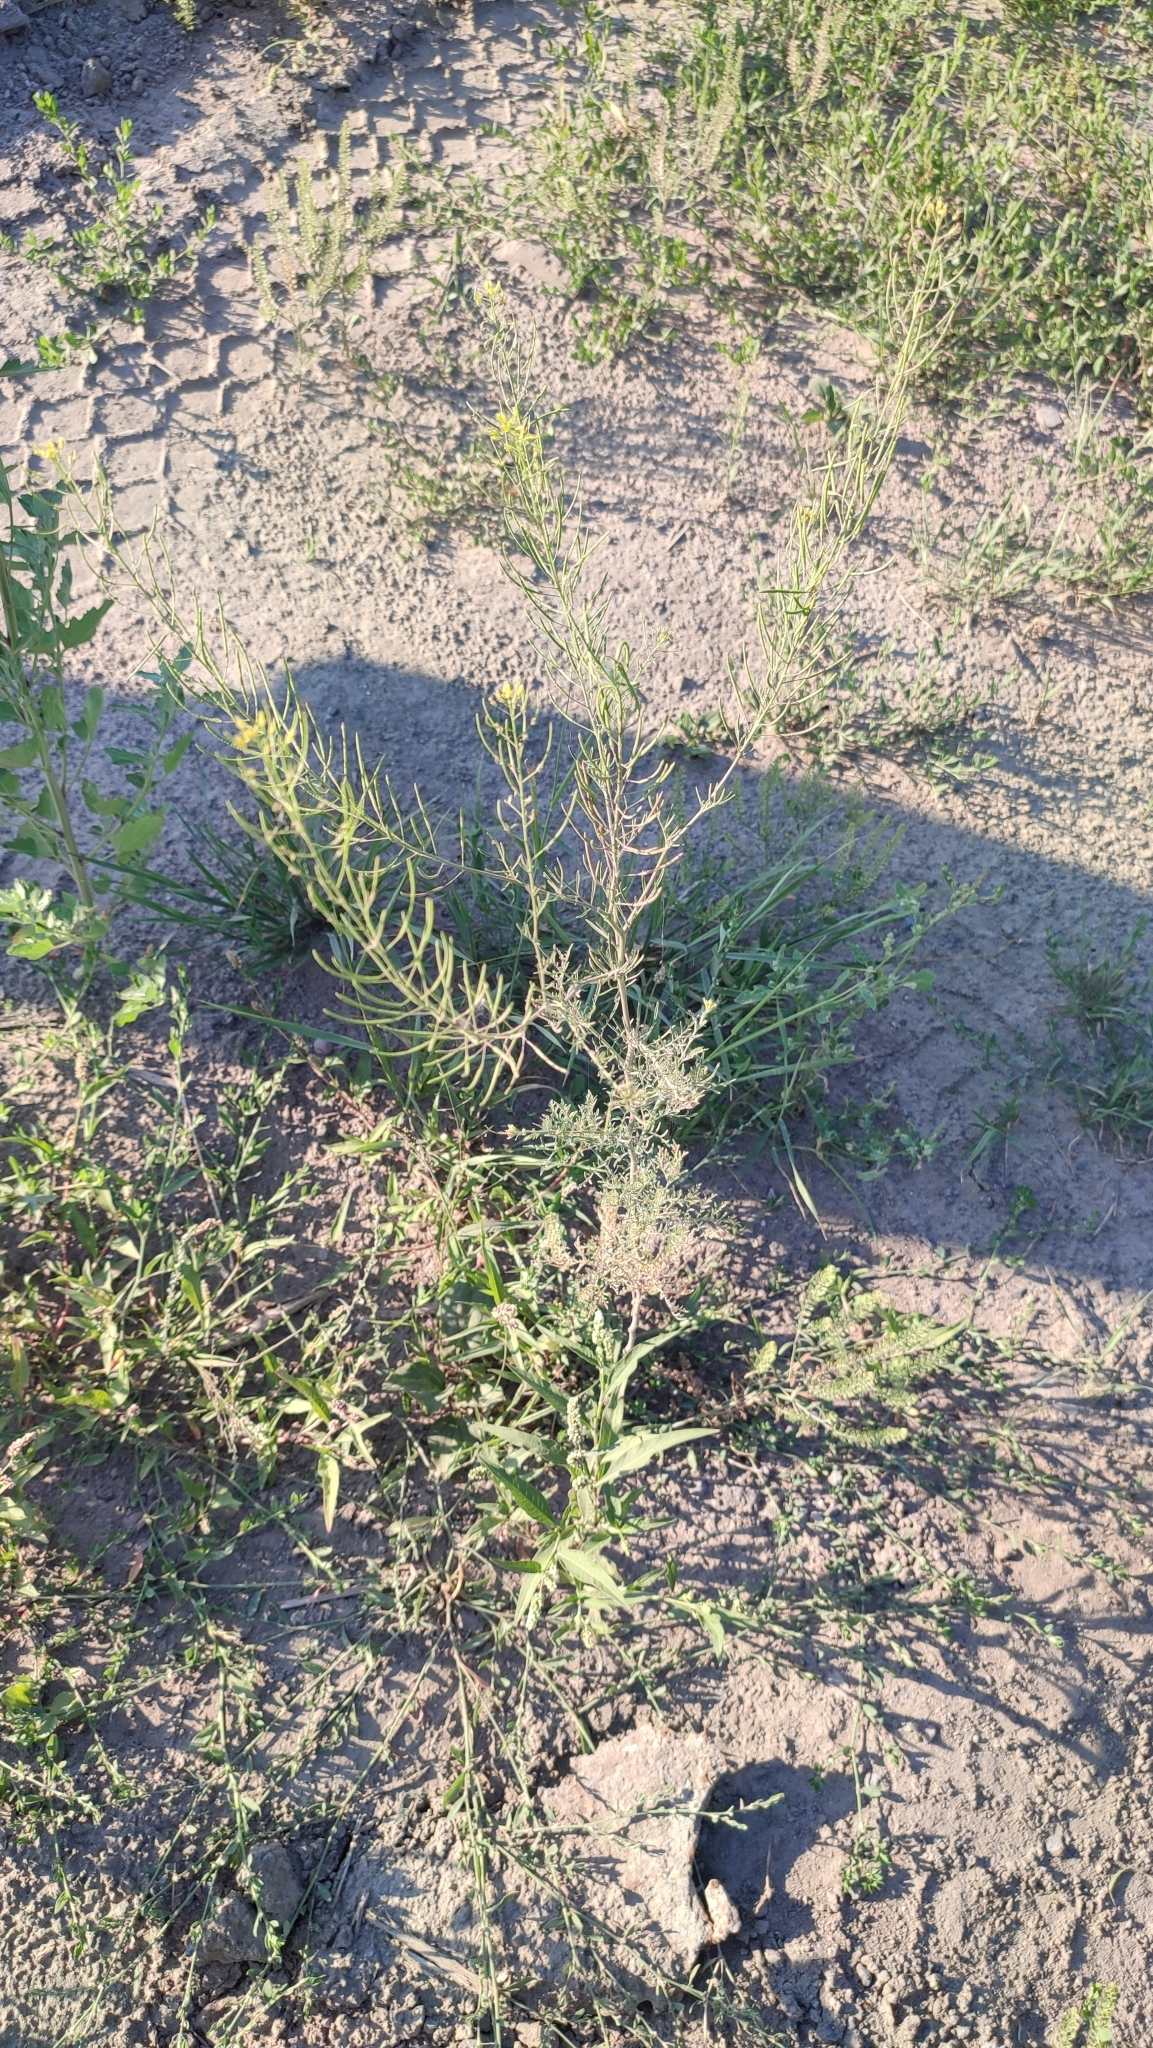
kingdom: Plantae
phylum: Tracheophyta
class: Magnoliopsida
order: Brassicales
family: Brassicaceae
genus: Descurainia
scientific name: Descurainia sophia
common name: Flixweed
